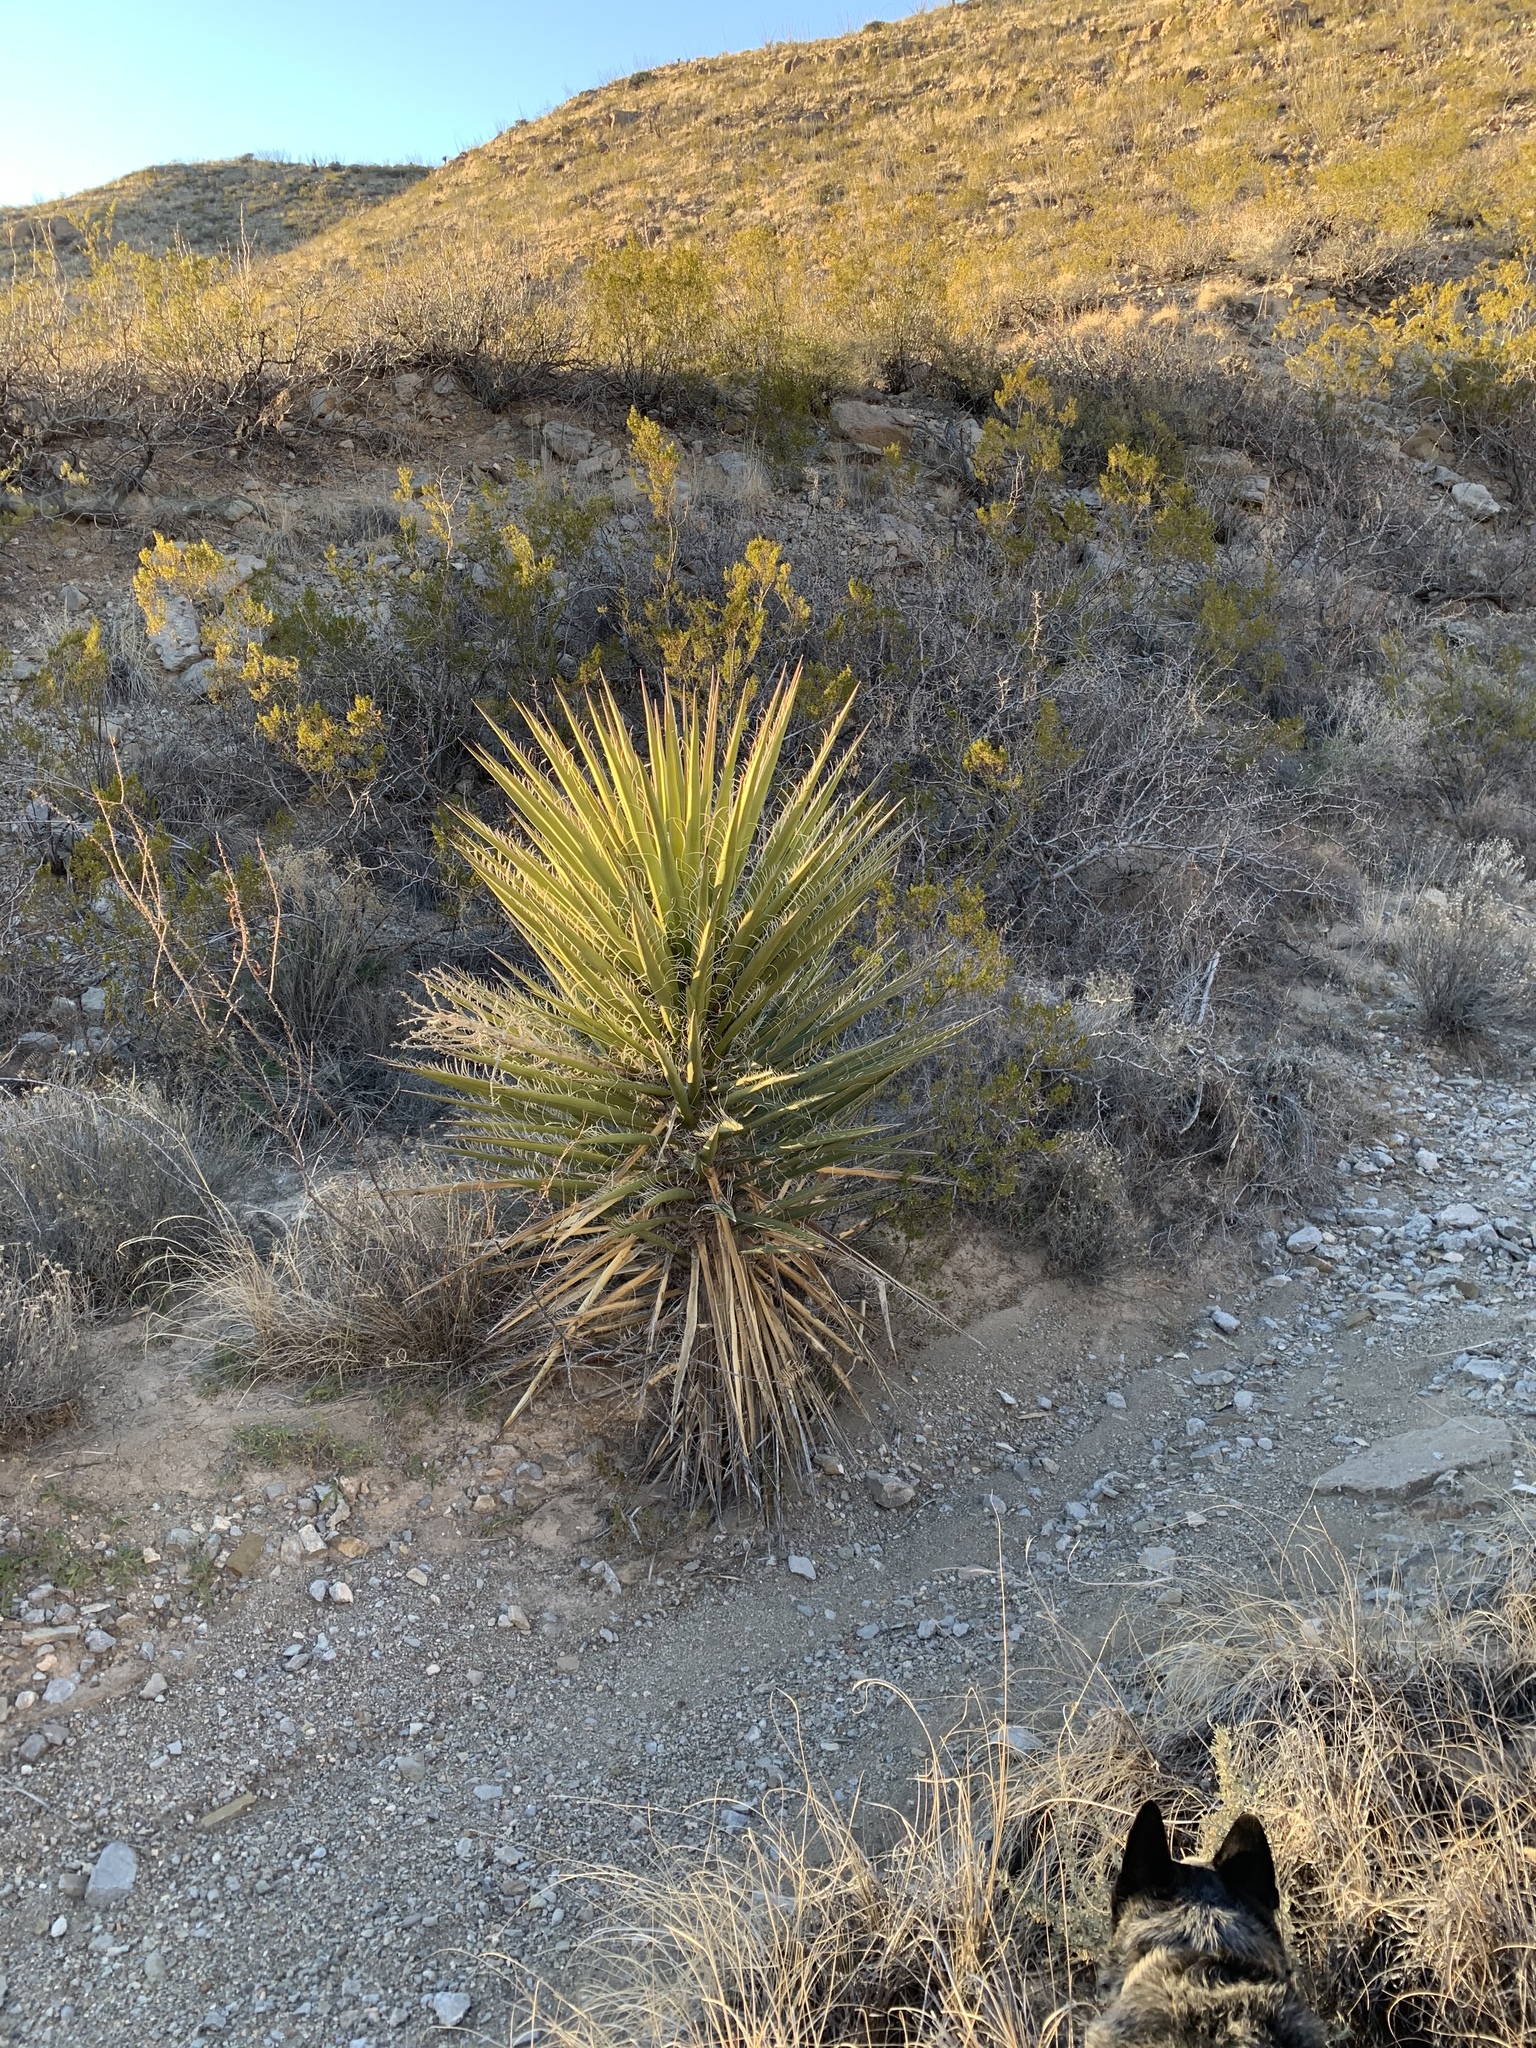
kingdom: Plantae
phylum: Tracheophyta
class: Liliopsida
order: Asparagales
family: Asparagaceae
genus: Yucca
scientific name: Yucca treculiana
